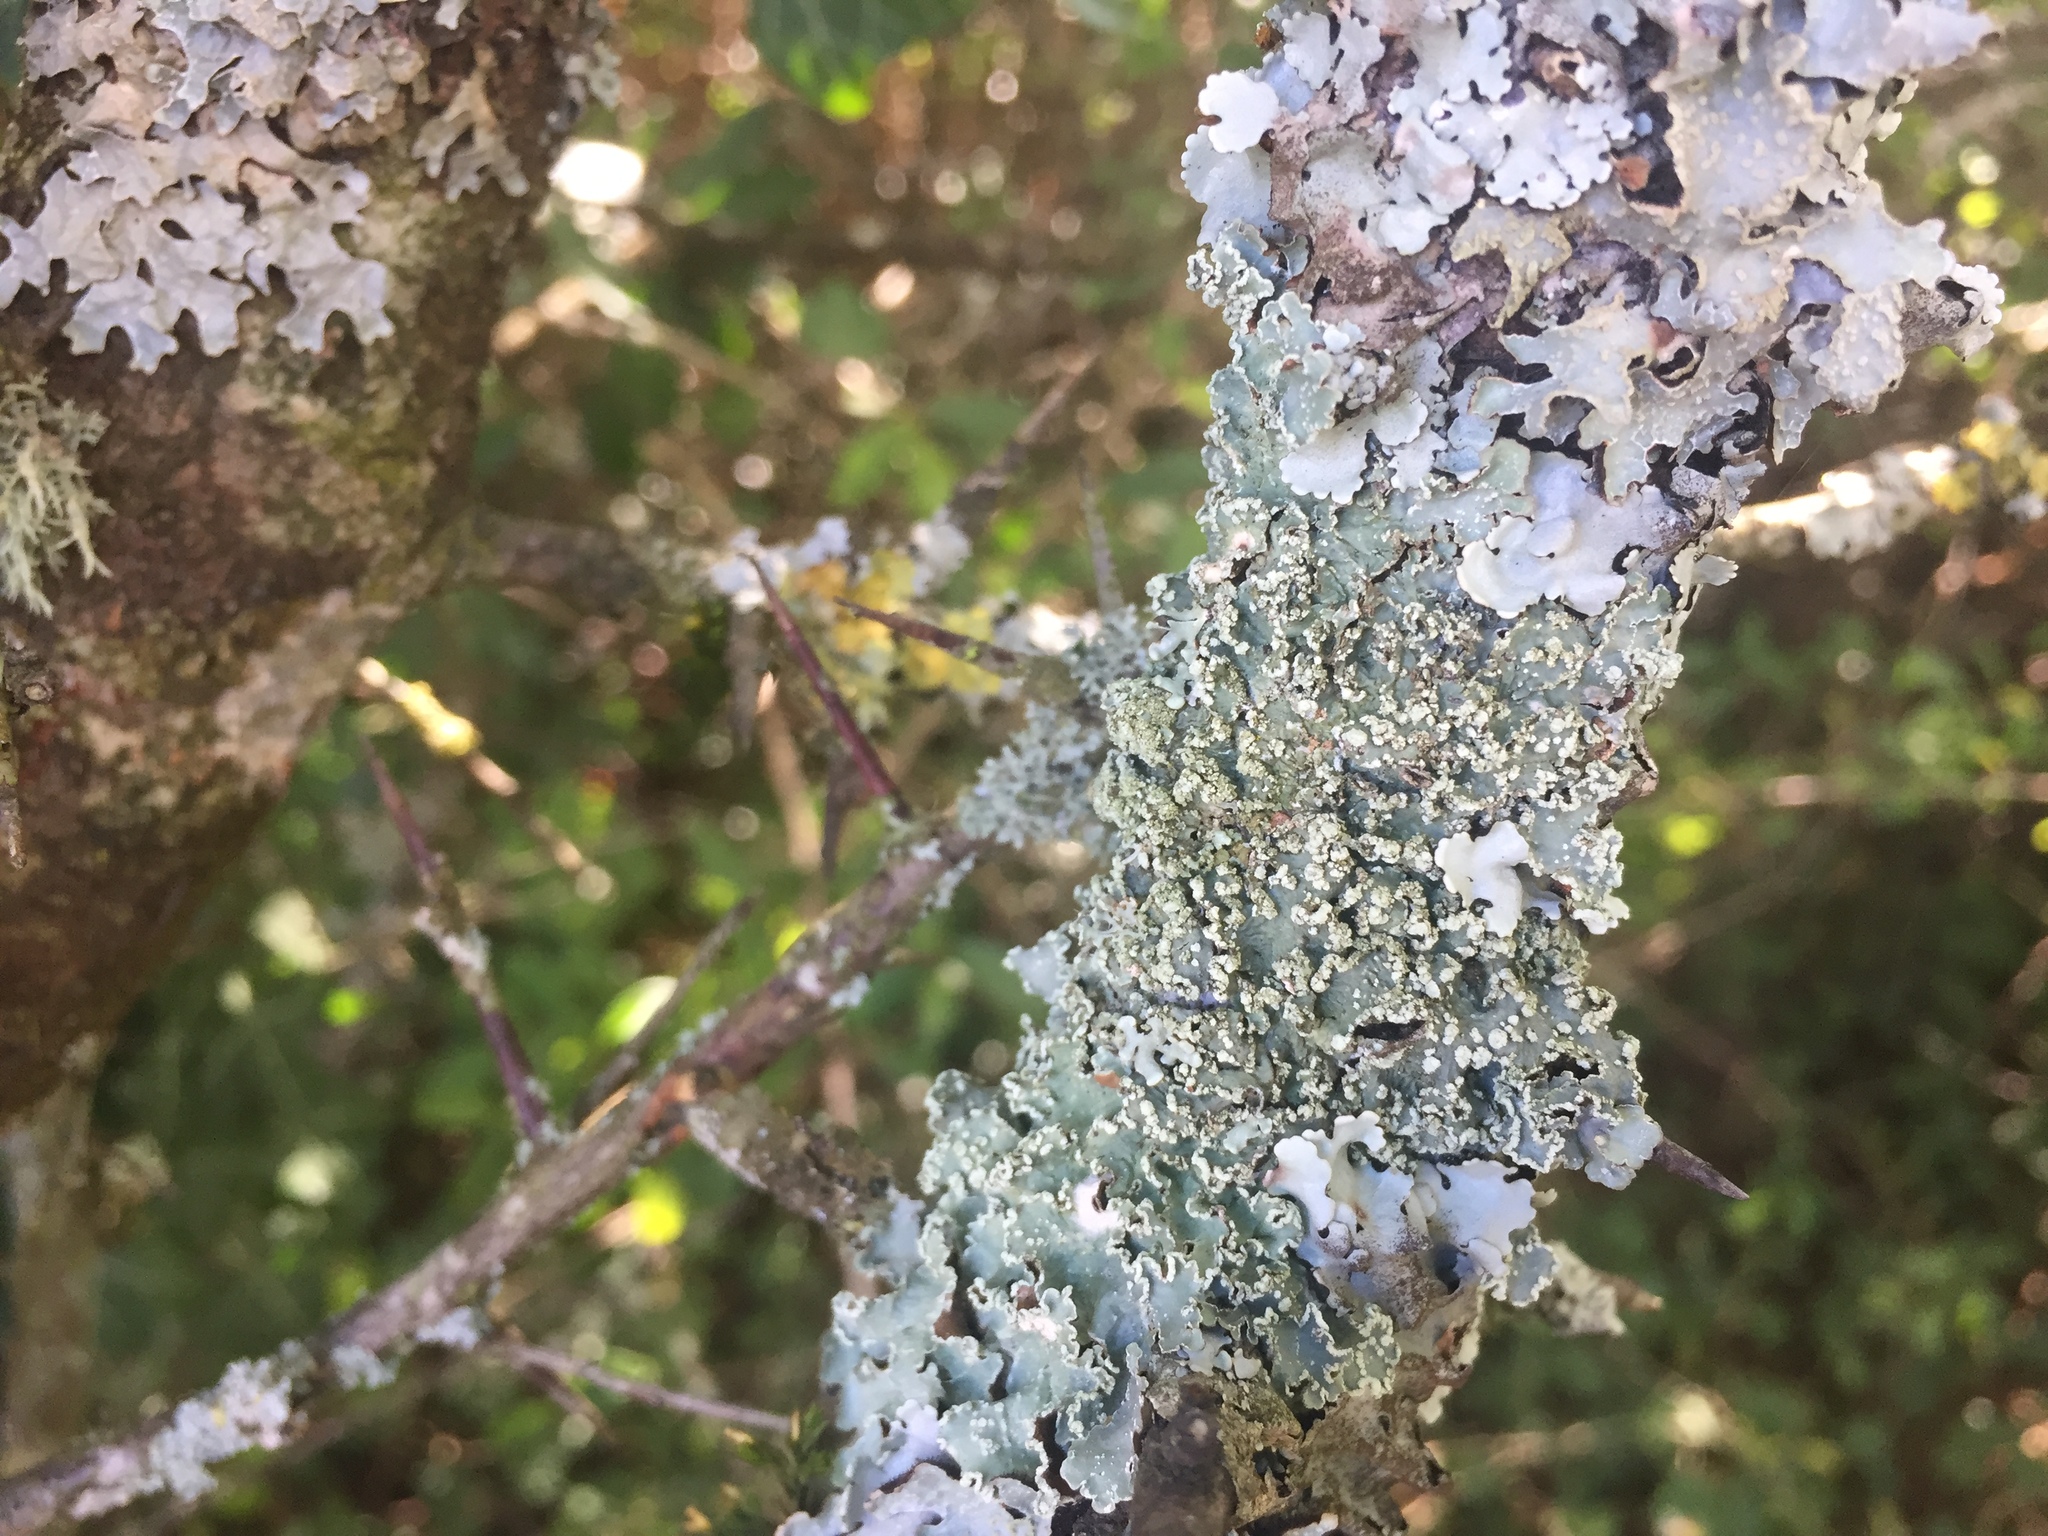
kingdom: Fungi
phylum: Ascomycota
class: Lecanoromycetes
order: Lecanorales
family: Parmeliaceae
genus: Punctelia
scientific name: Punctelia subrudecta
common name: Powdered speckled shield lichen
